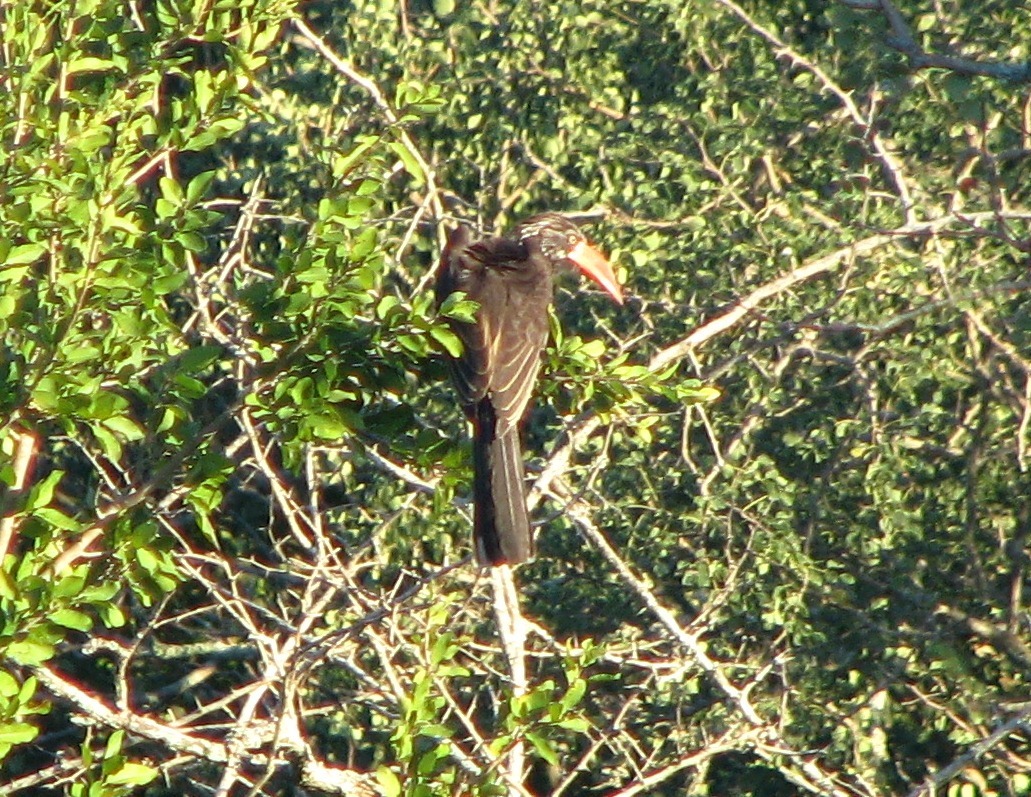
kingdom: Animalia
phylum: Chordata
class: Aves
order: Bucerotiformes
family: Bucerotidae
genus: Lophoceros
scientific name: Lophoceros alboterminatus
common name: Crowned hornbill
